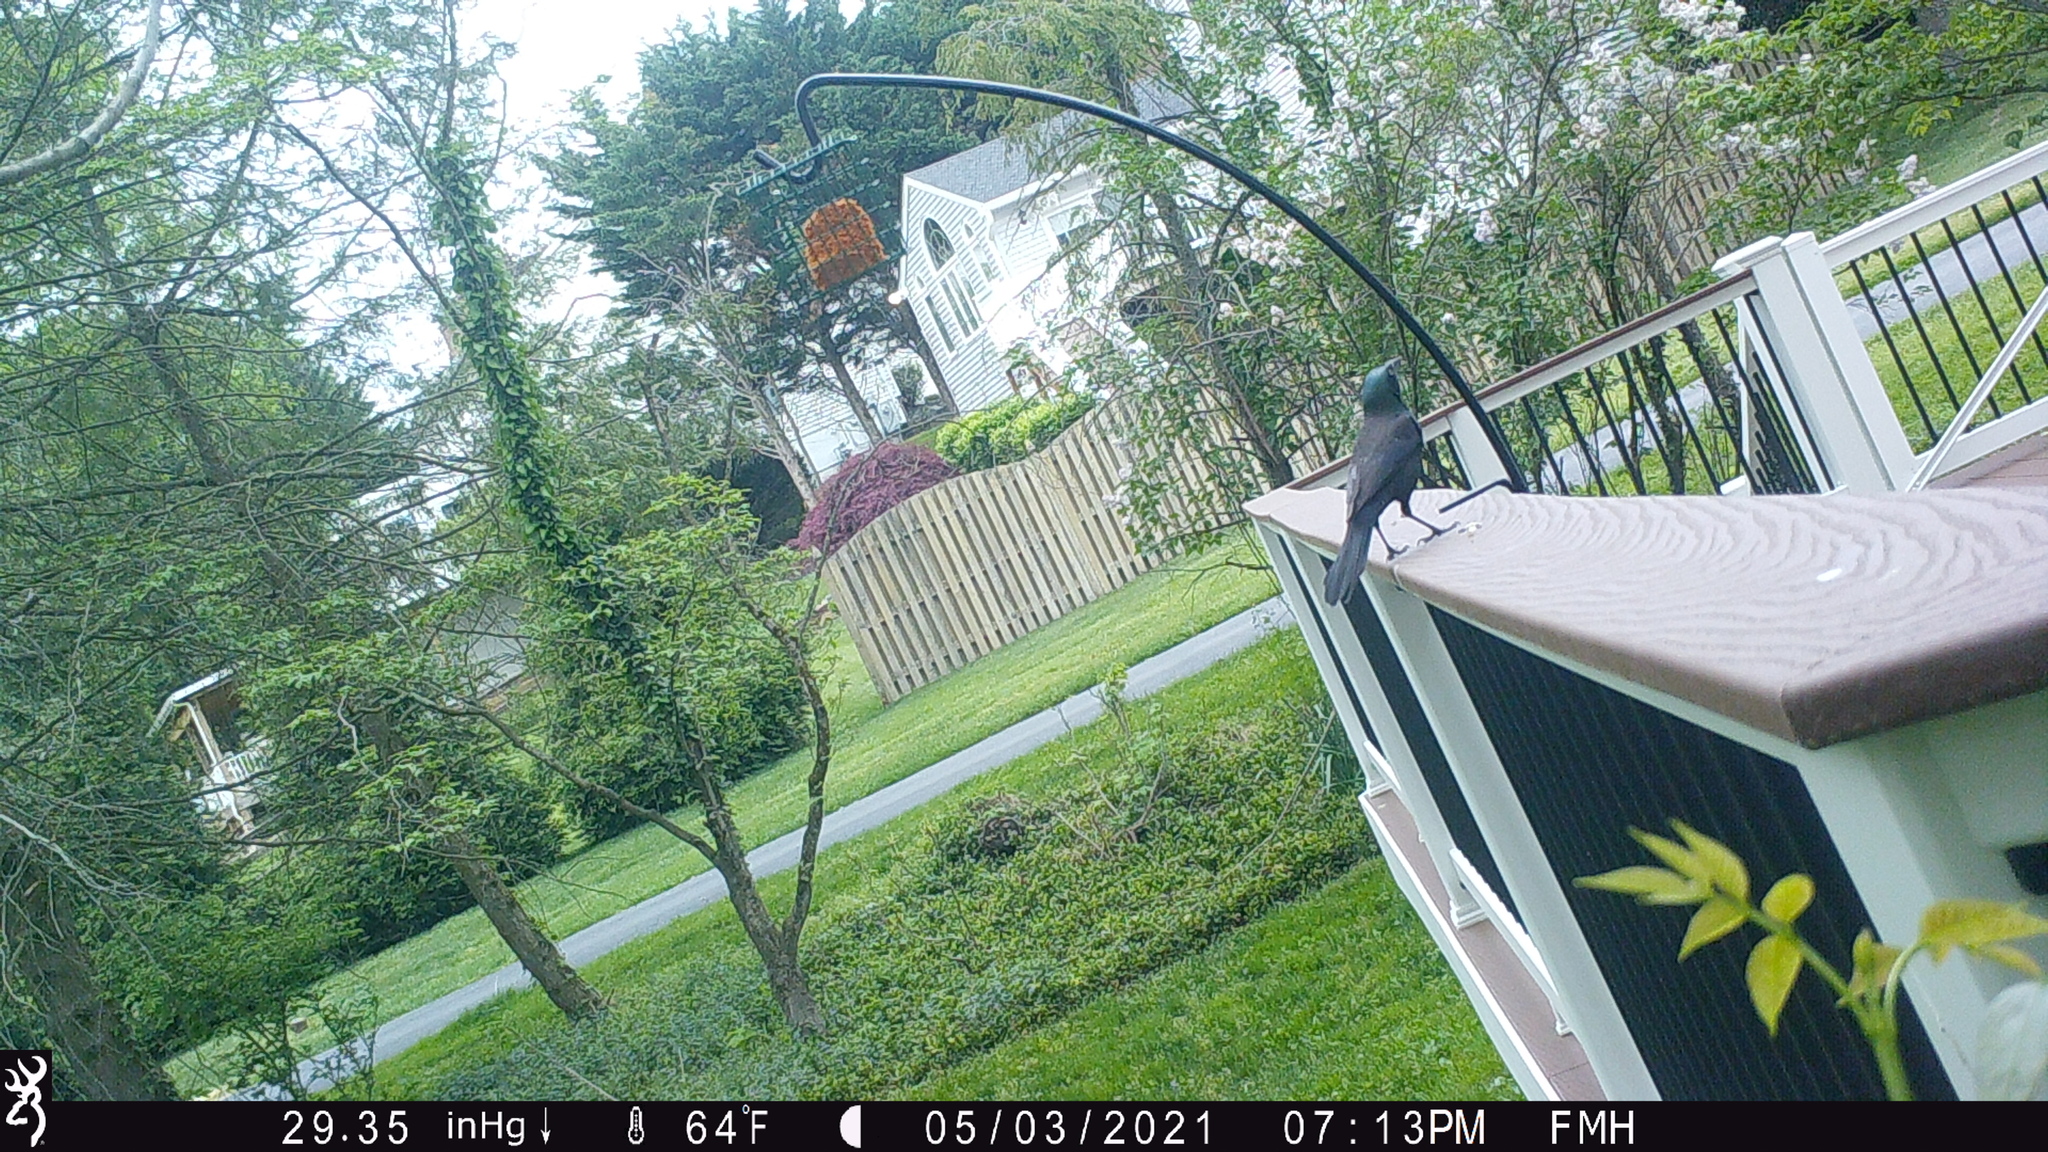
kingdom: Animalia
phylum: Chordata
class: Aves
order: Passeriformes
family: Icteridae
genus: Quiscalus
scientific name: Quiscalus quiscula
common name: Common grackle
